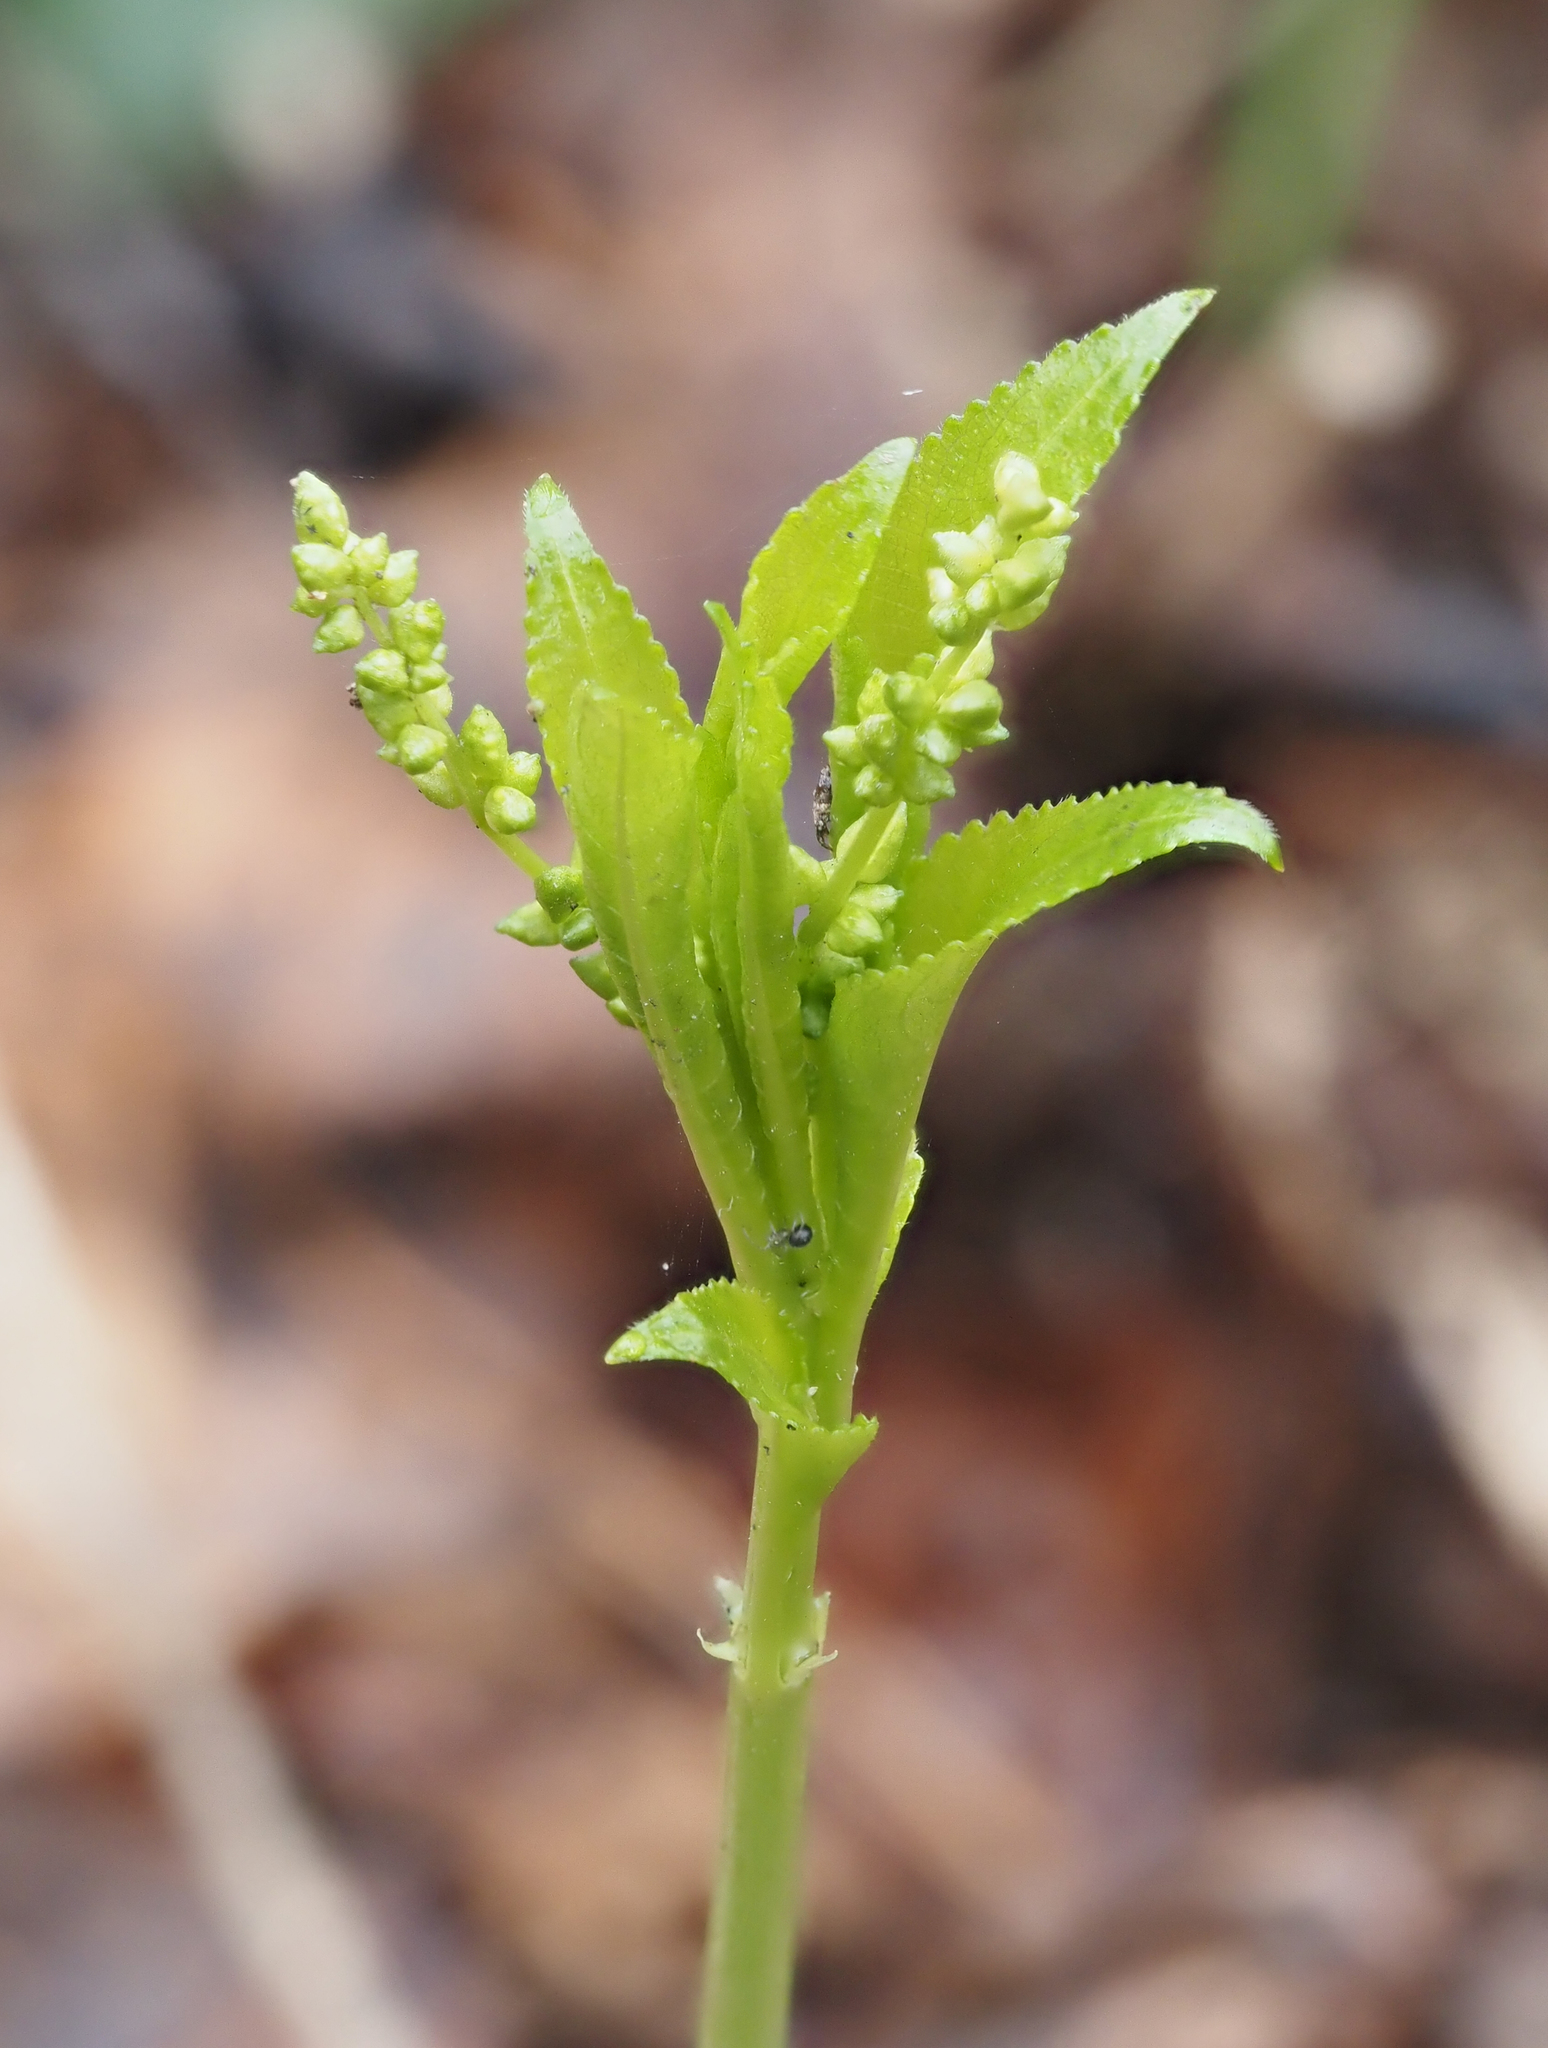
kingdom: Plantae
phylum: Tracheophyta
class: Magnoliopsida
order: Malpighiales
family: Euphorbiaceae
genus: Mercurialis
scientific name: Mercurialis perennis
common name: Dog mercury
